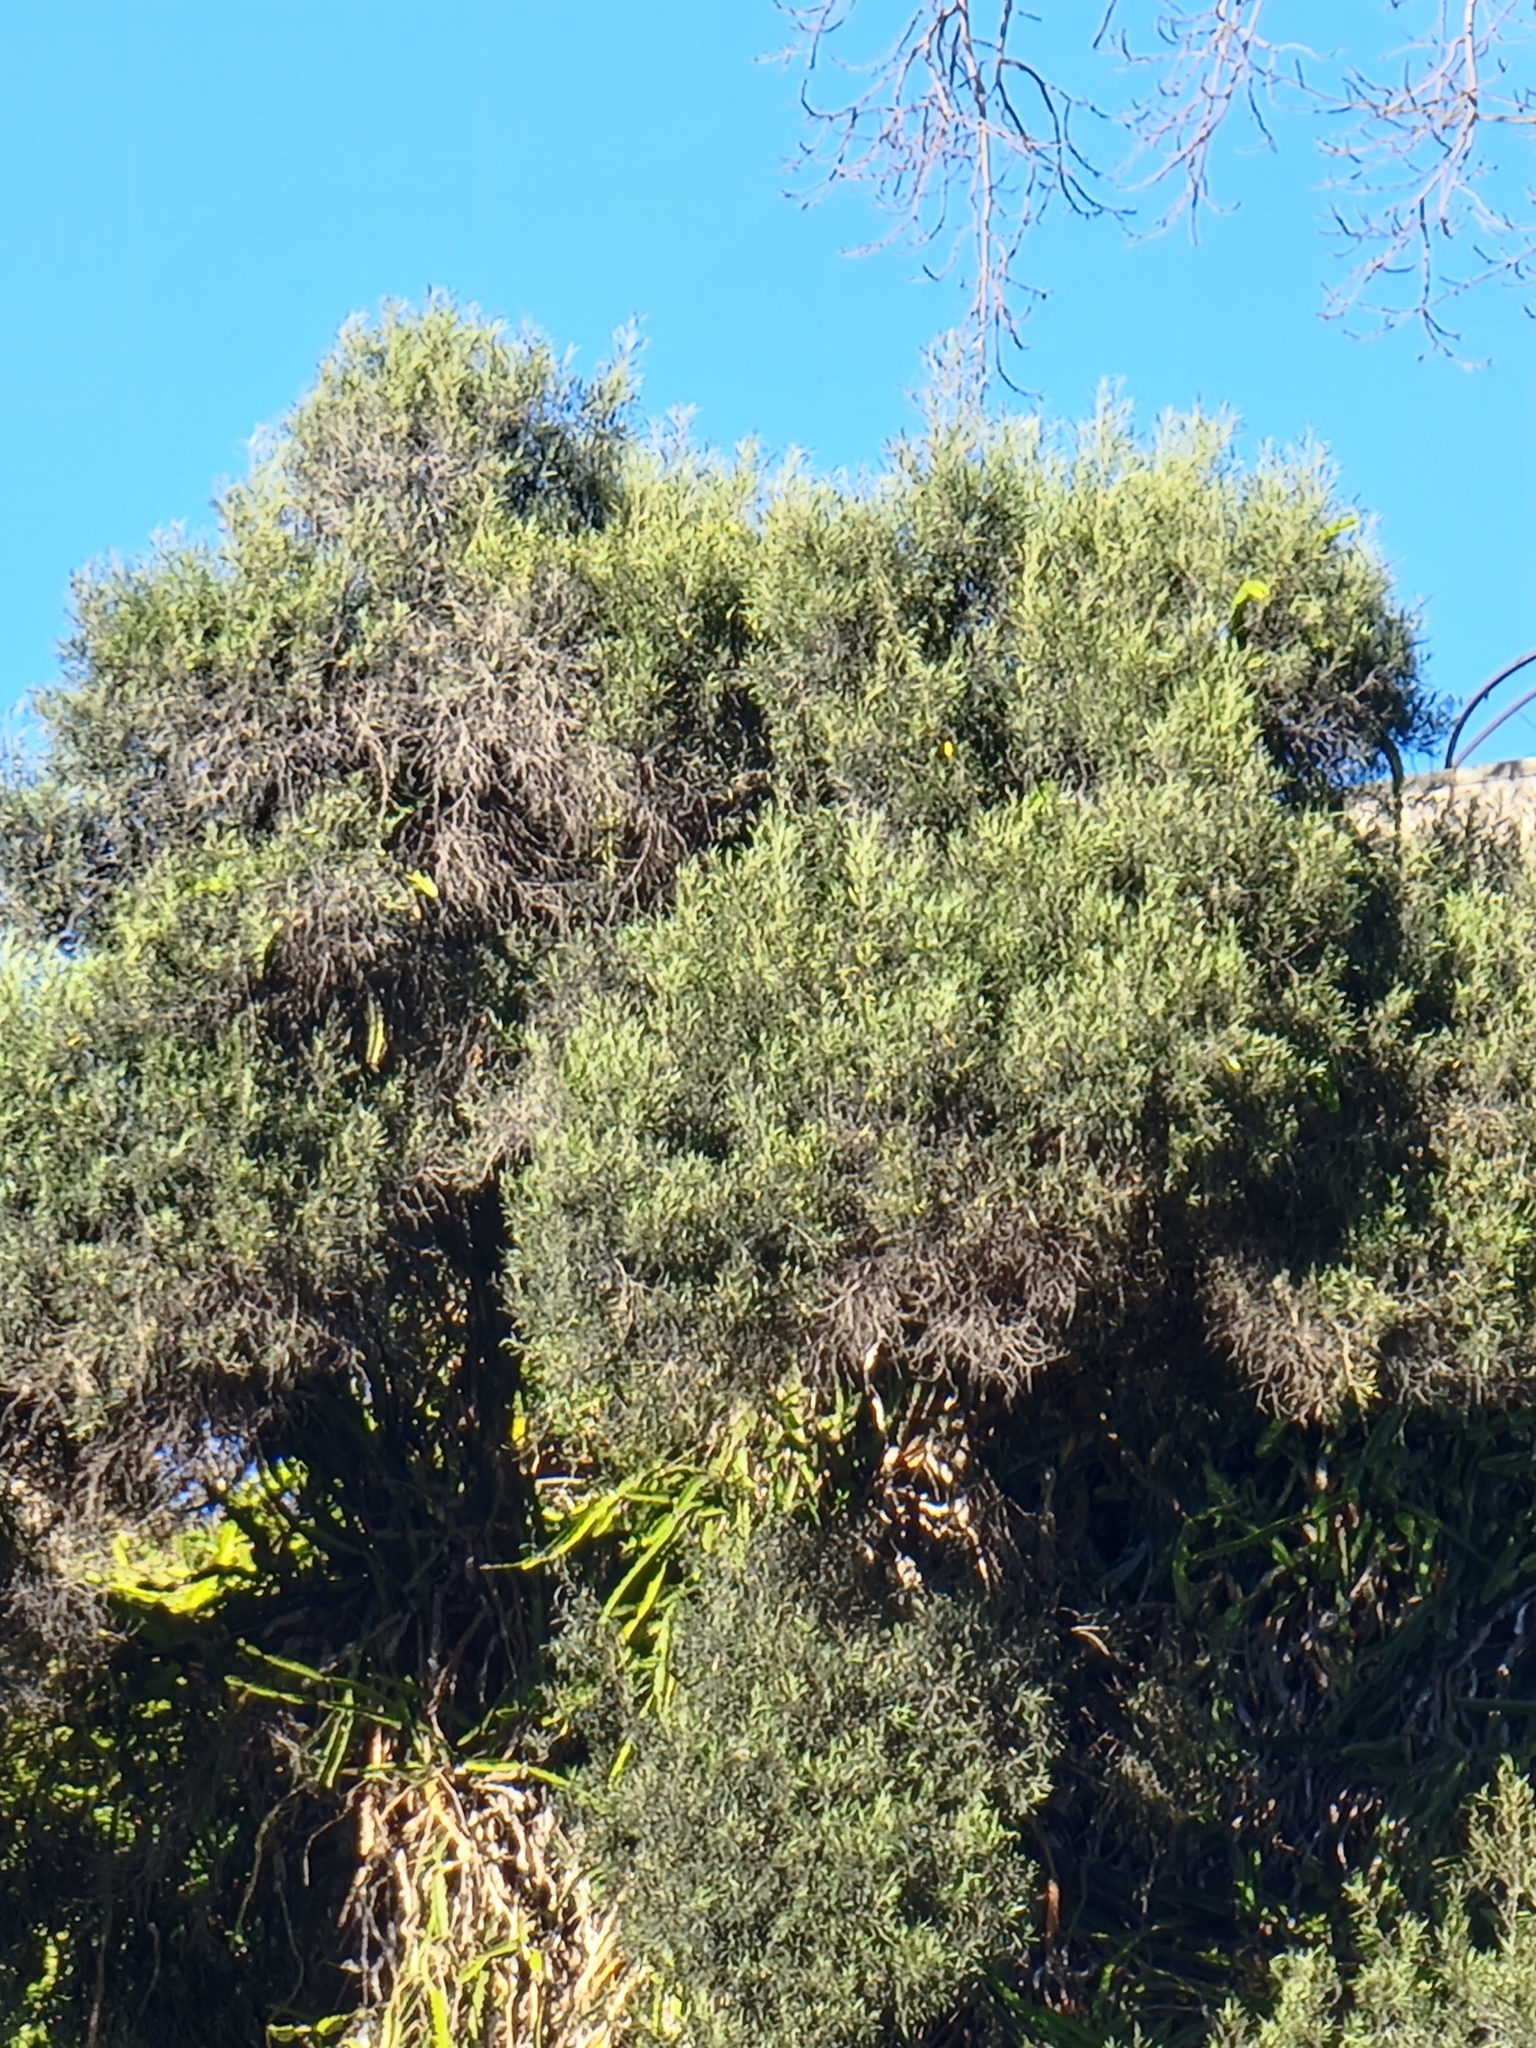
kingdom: Plantae
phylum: Tracheophyta
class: Magnoliopsida
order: Lamiales
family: Oleaceae
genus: Olea
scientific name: Olea europaea
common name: Olive
